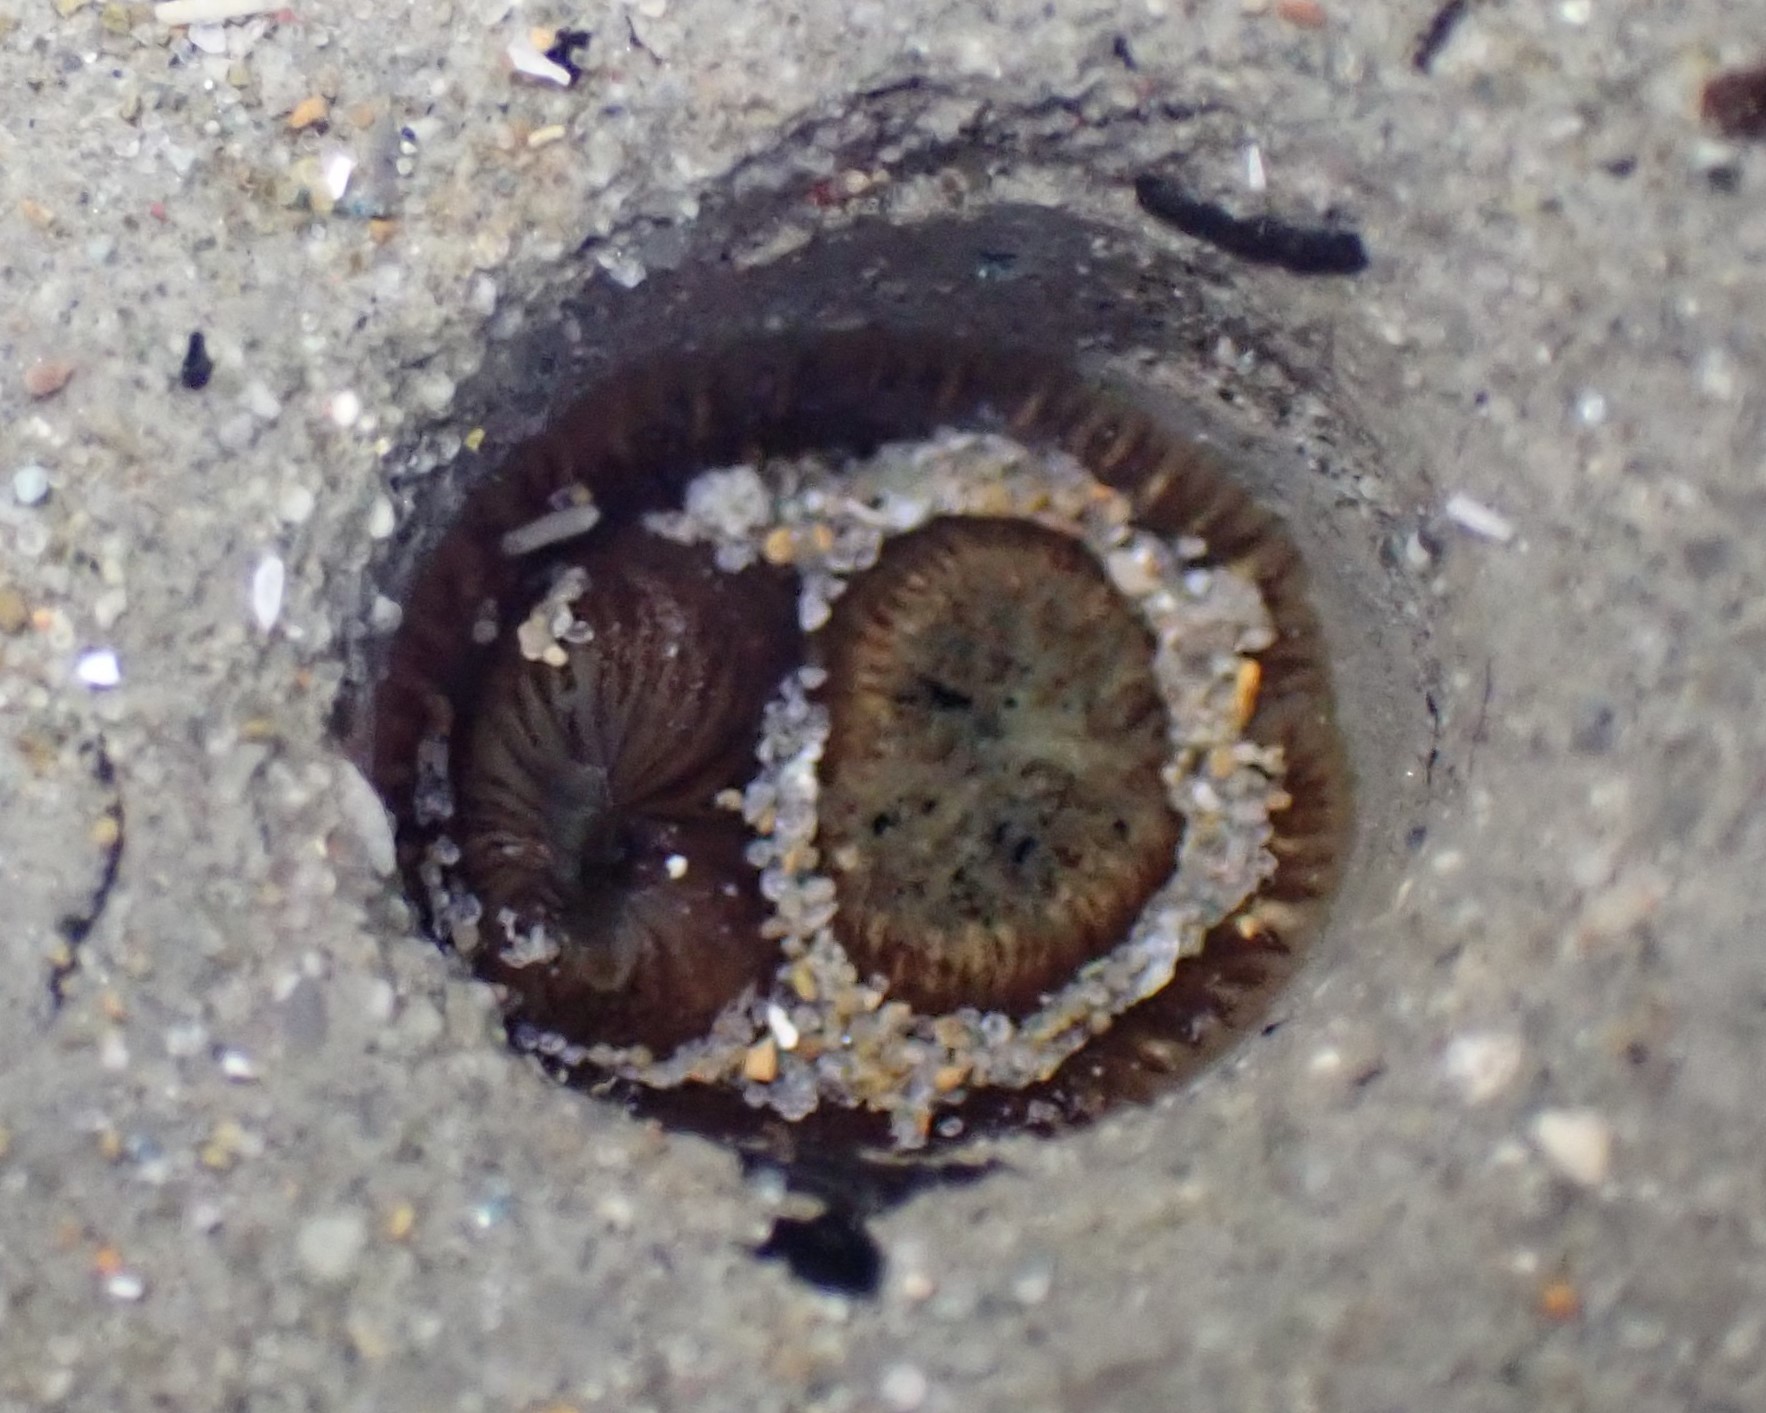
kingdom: Animalia
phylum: Mollusca
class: Bivalvia
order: Myida
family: Pholadidae
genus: Pholadidea
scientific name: Pholadidea suteri
